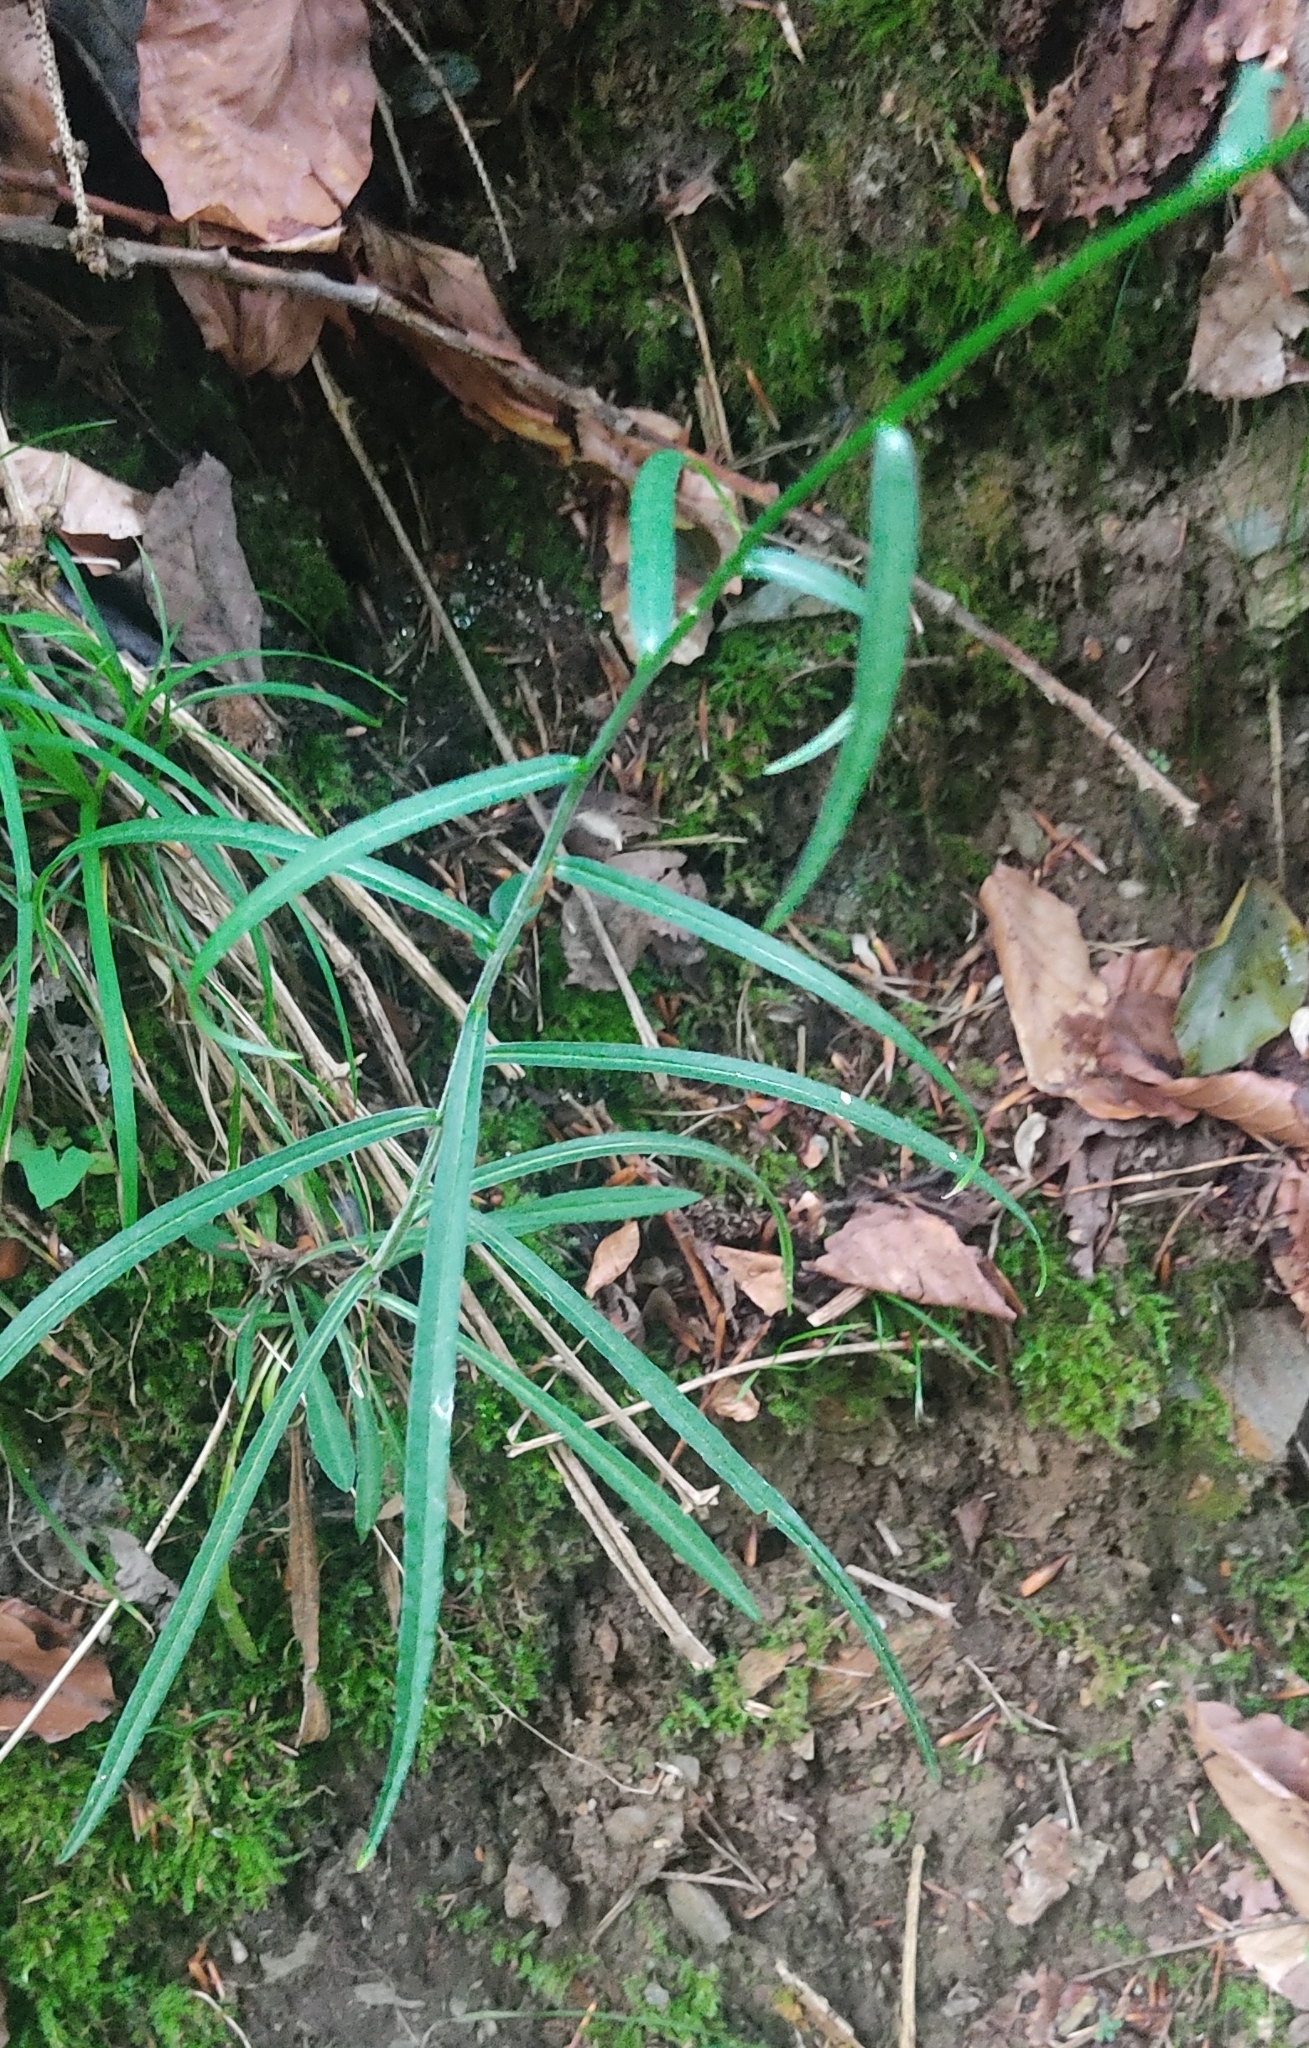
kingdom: Plantae
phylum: Tracheophyta
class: Magnoliopsida
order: Asterales
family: Campanulaceae
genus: Campanula
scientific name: Campanula persicifolia
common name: Peach-leaved bellflower
